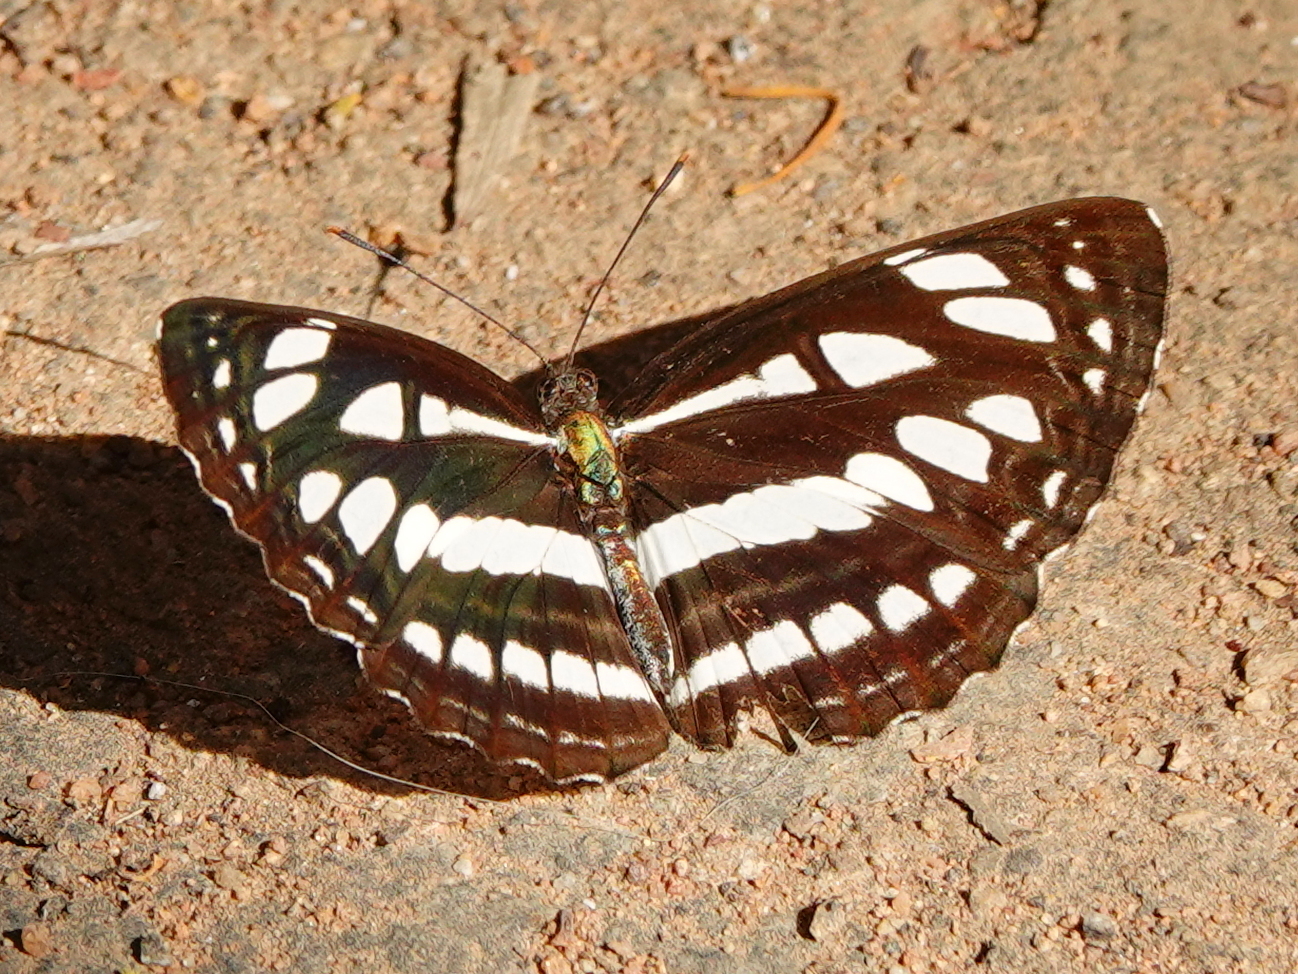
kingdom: Animalia
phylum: Arthropoda
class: Insecta
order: Lepidoptera
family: Nymphalidae
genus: Neptis
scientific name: Neptis hylas
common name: Common sailer
